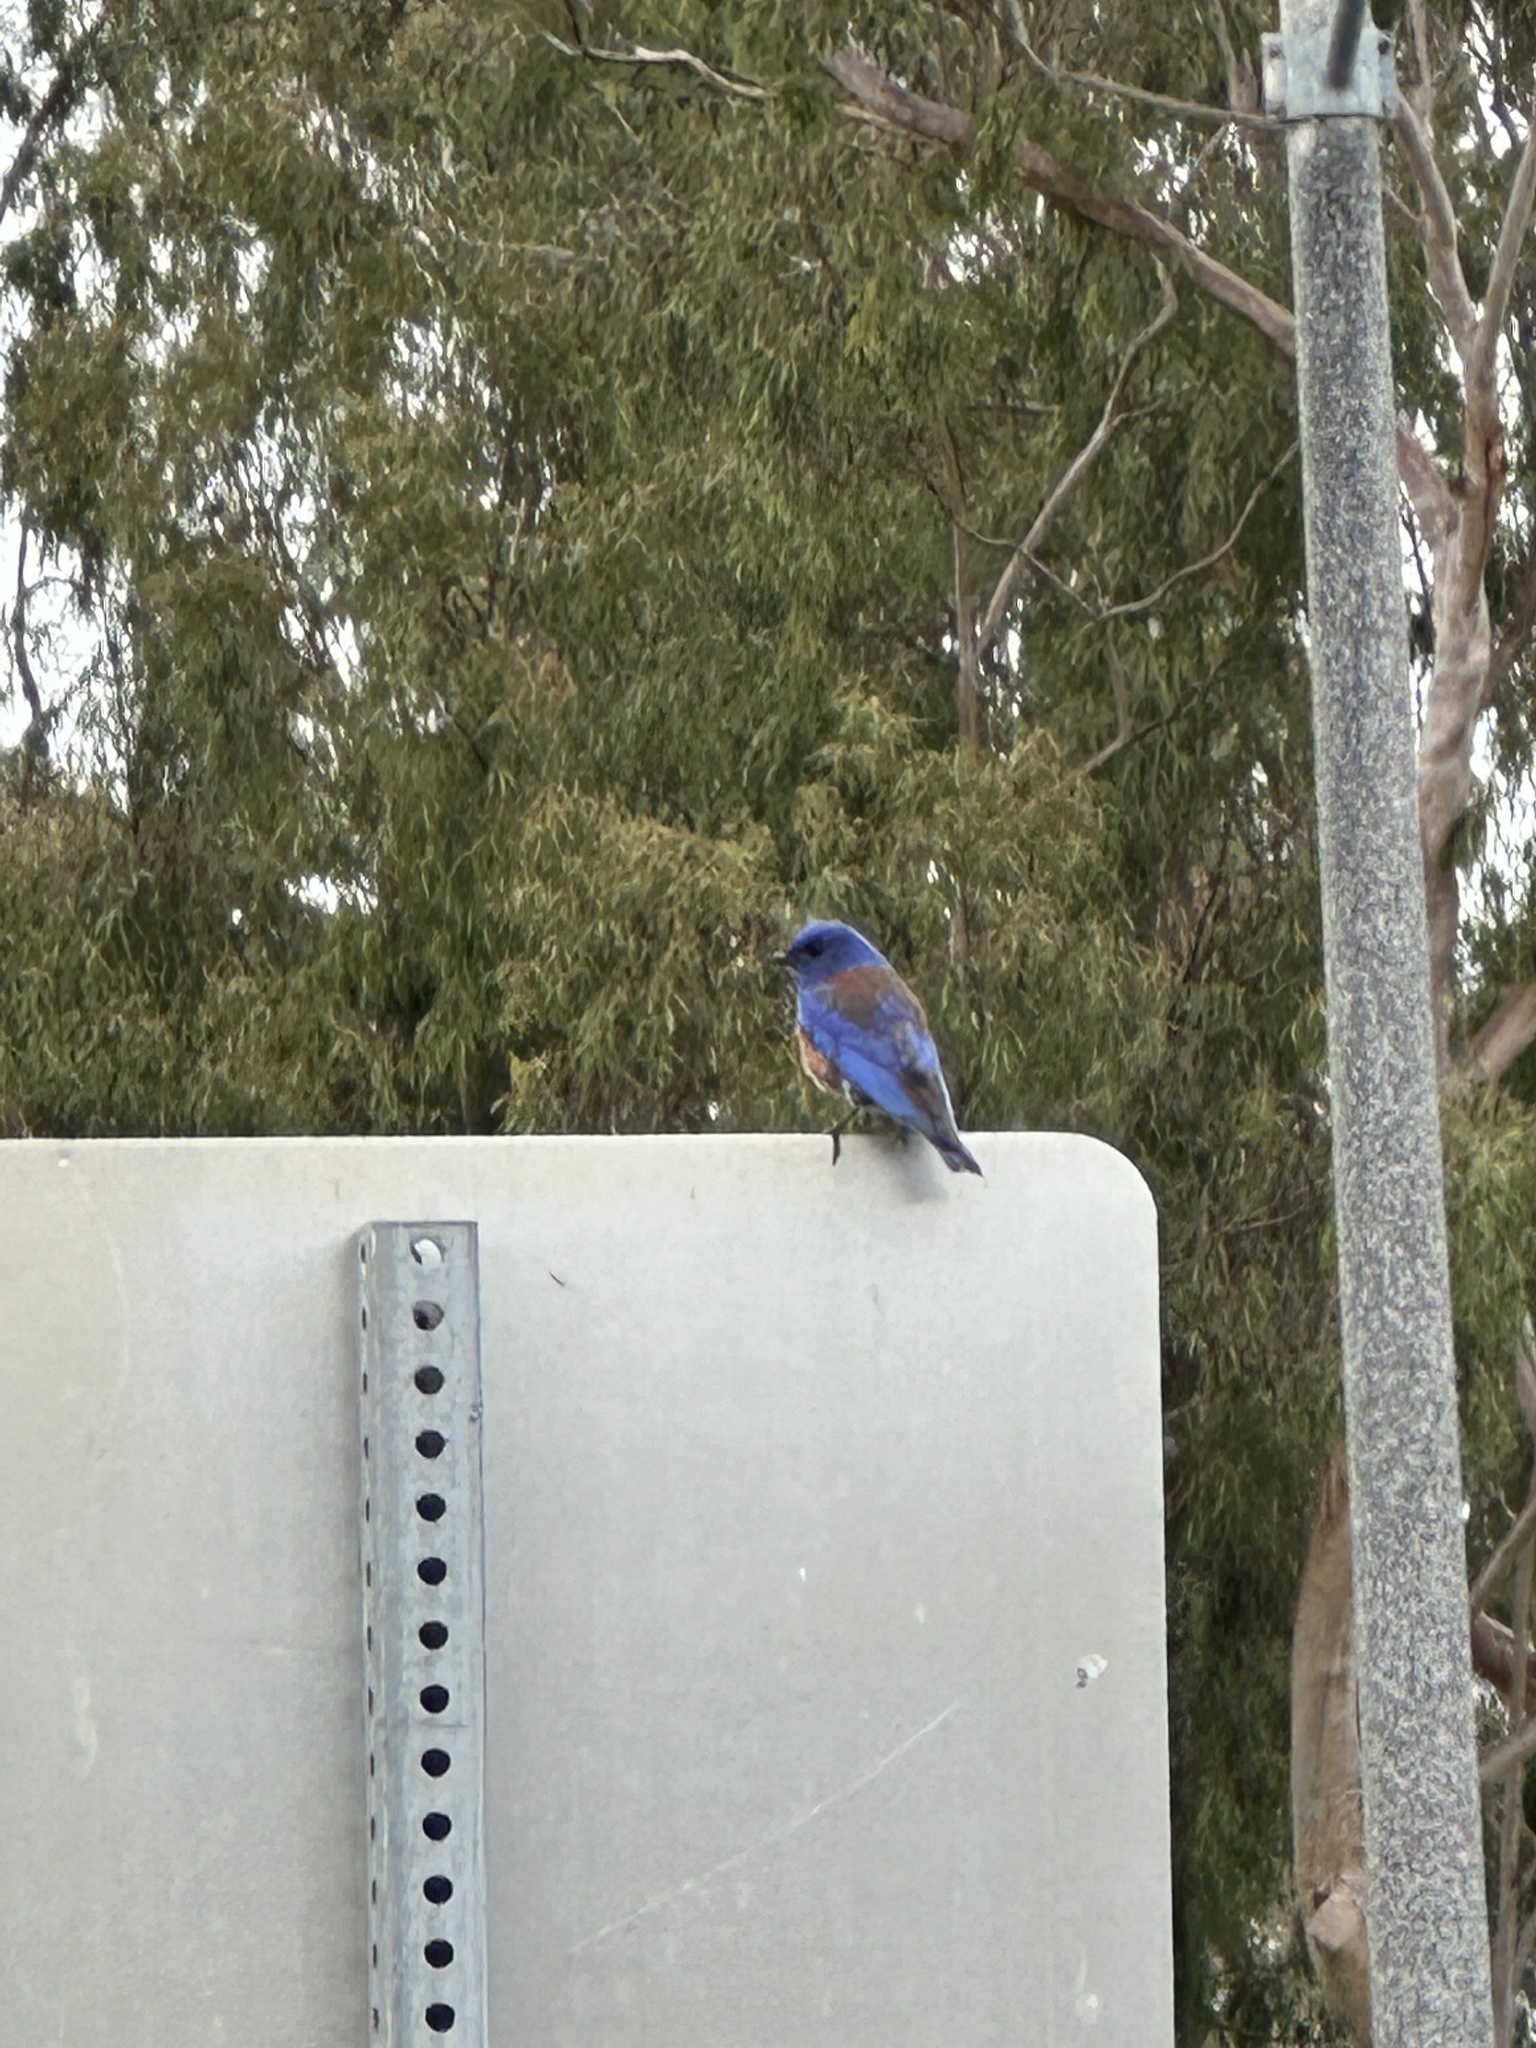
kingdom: Animalia
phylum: Chordata
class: Aves
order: Passeriformes
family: Turdidae
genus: Sialia
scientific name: Sialia mexicana
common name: Western bluebird
